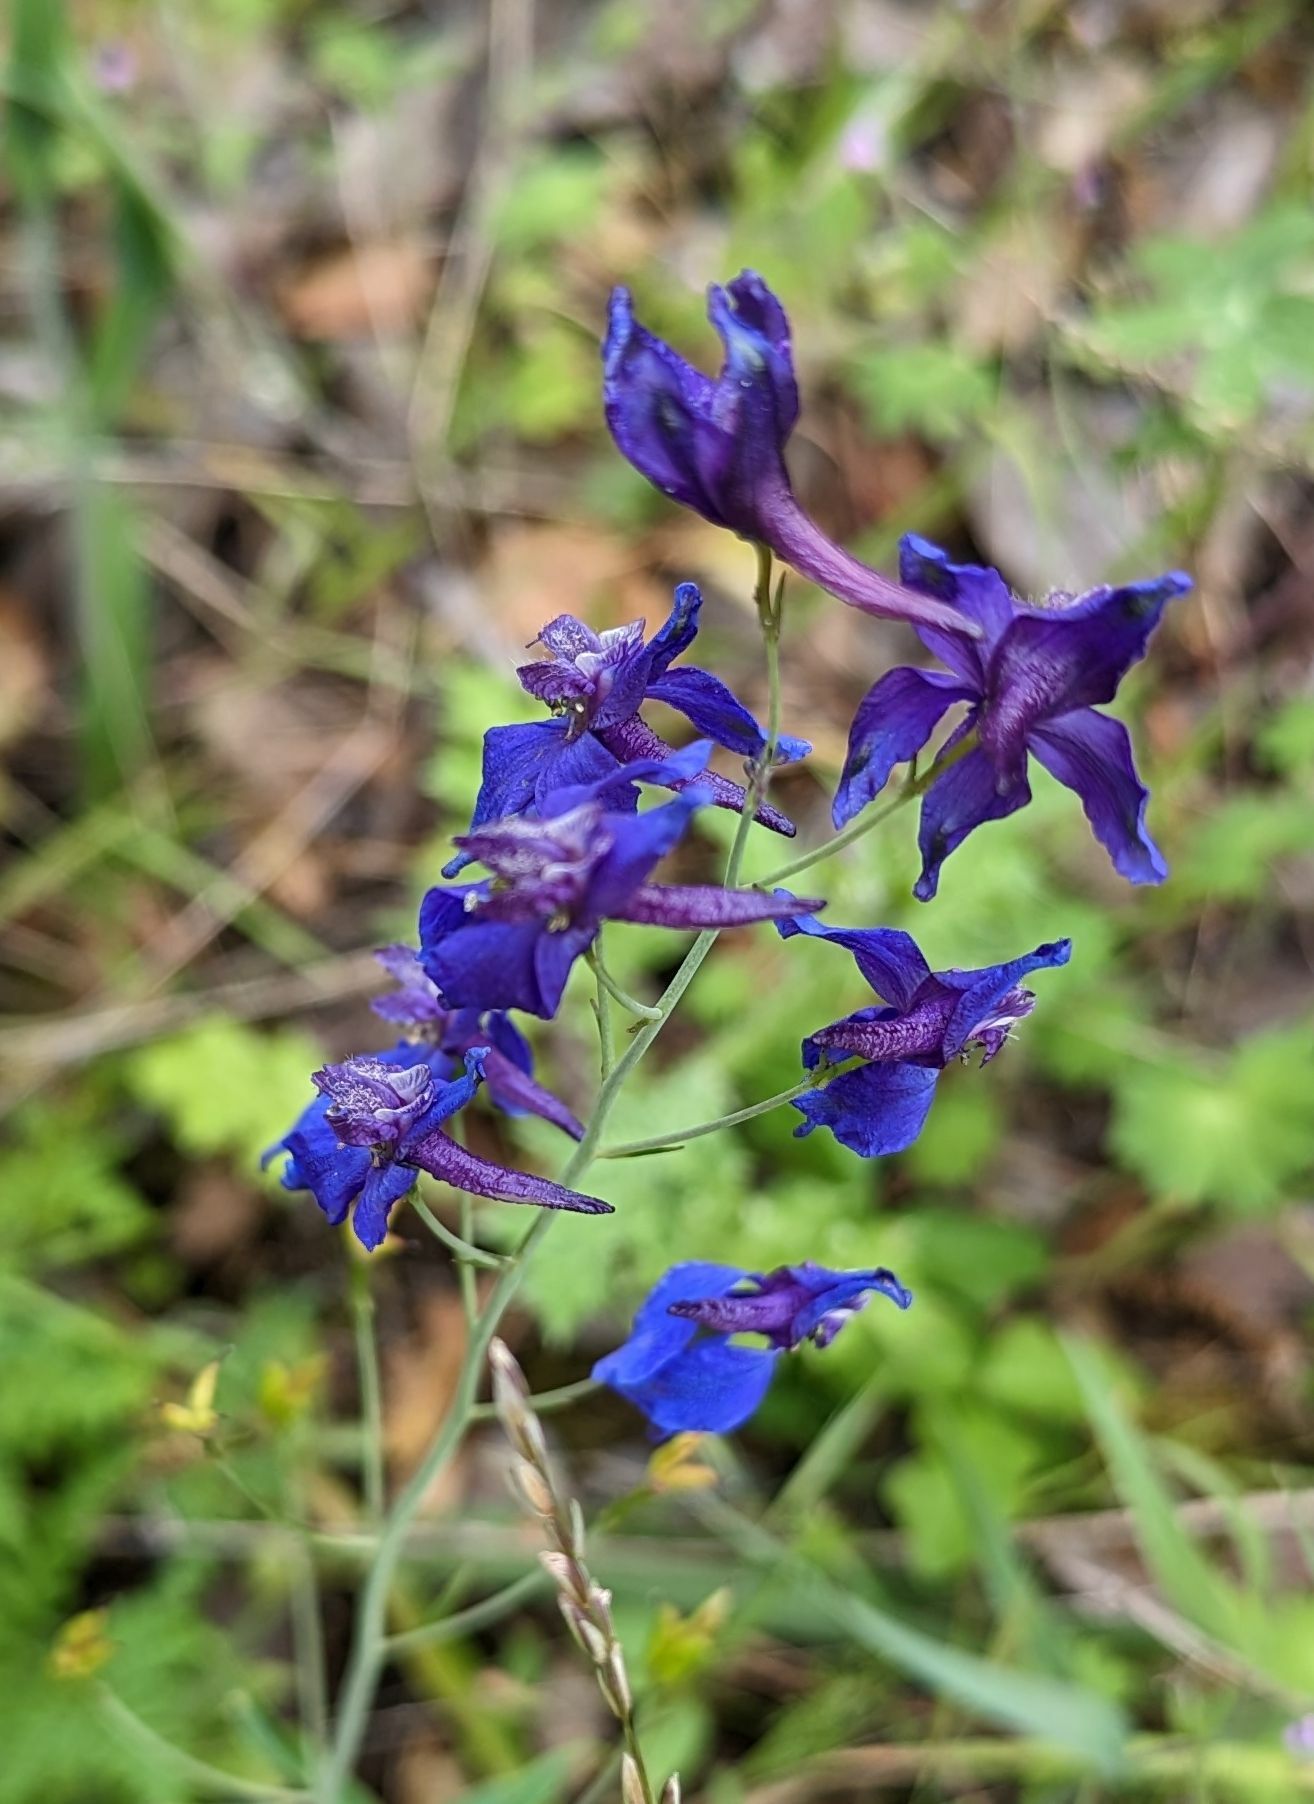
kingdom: Plantae
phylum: Tracheophyta
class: Magnoliopsida
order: Ranunculales
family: Ranunculaceae
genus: Delphinium
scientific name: Delphinium patens
